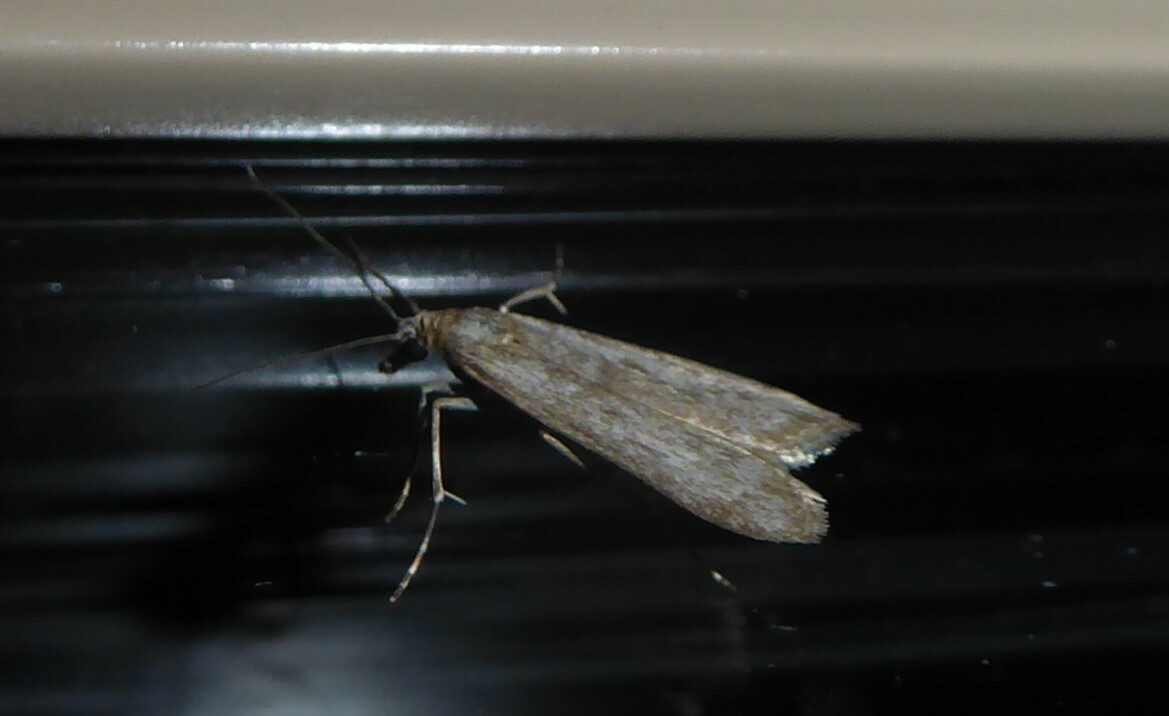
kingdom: Animalia
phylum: Arthropoda
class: Insecta
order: Lepidoptera
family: Crambidae
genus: Eudonia
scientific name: Eudonia leptalea
